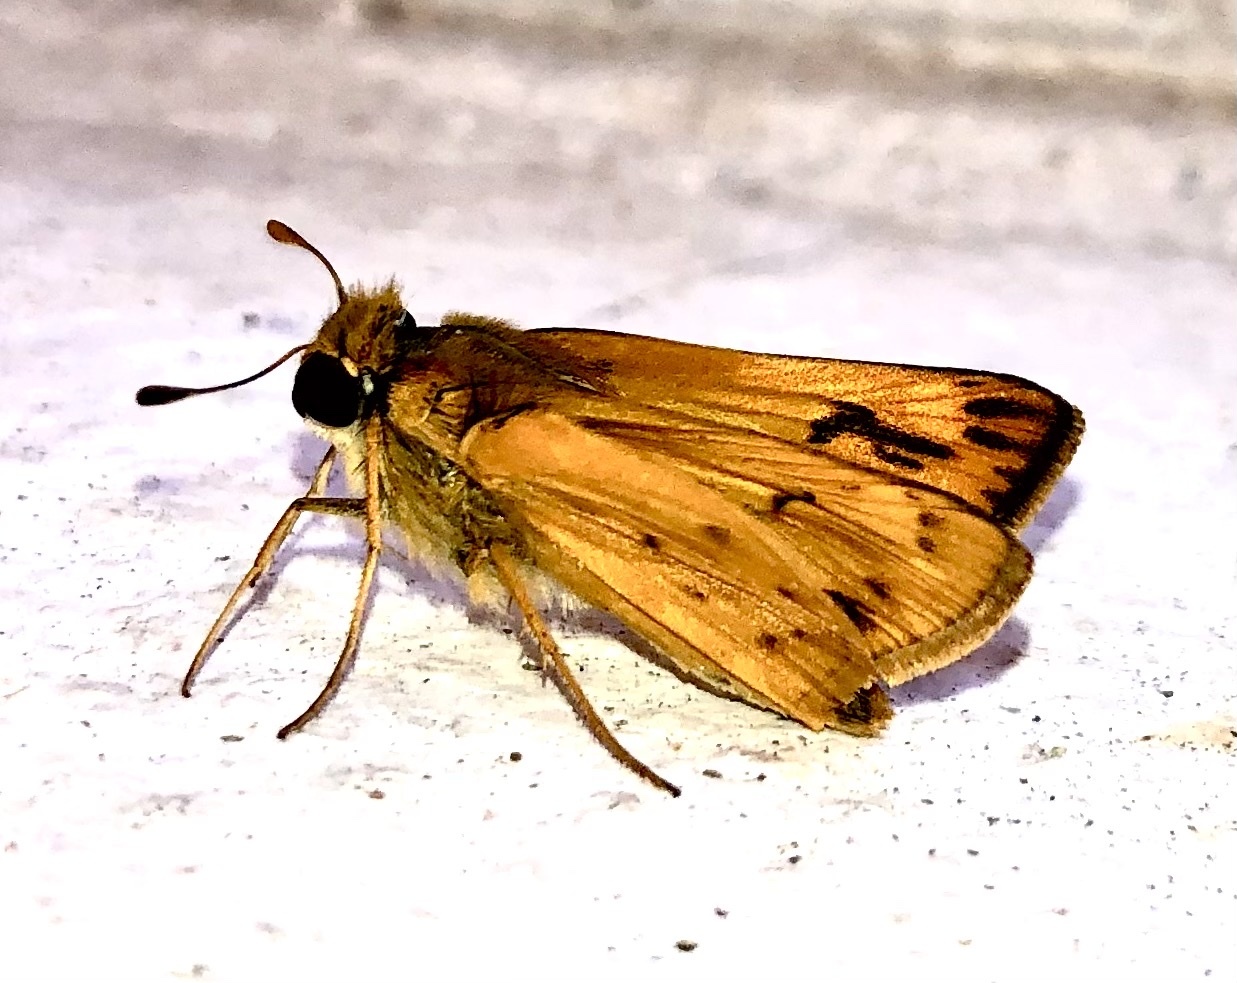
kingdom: Animalia
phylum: Arthropoda
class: Insecta
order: Lepidoptera
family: Hesperiidae
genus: Hylephila
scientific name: Hylephila phyleus
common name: Fiery skipper
